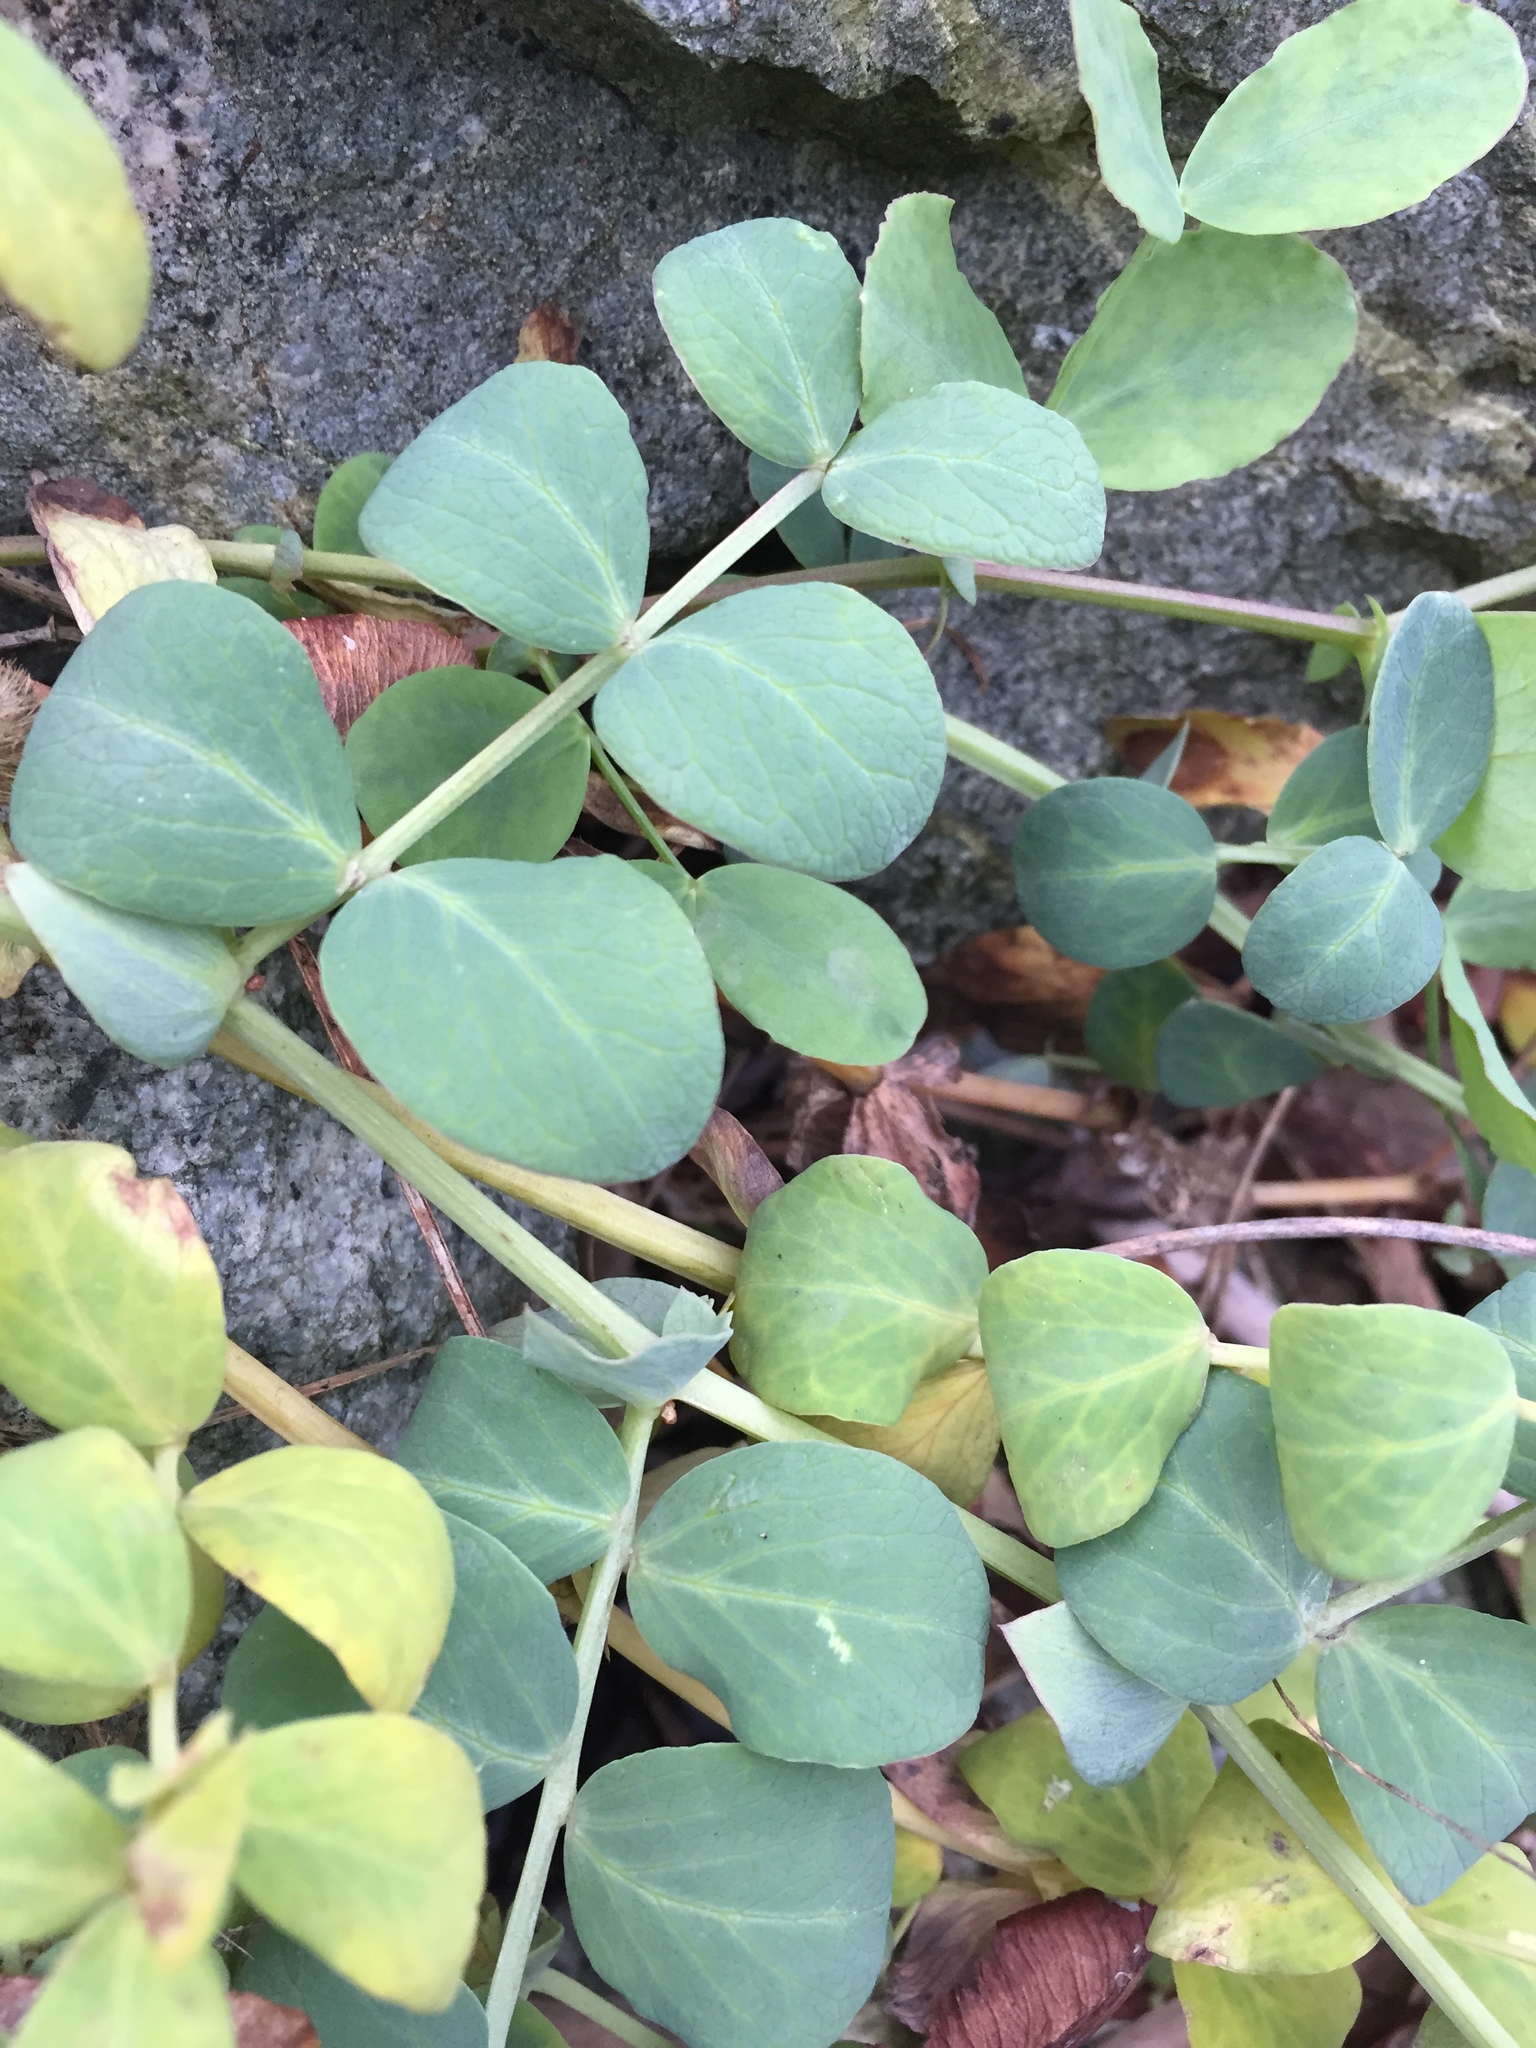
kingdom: Plantae
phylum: Tracheophyta
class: Magnoliopsida
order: Fabales
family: Fabaceae
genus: Lathyrus
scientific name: Lathyrus japonicus
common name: Sea pea
